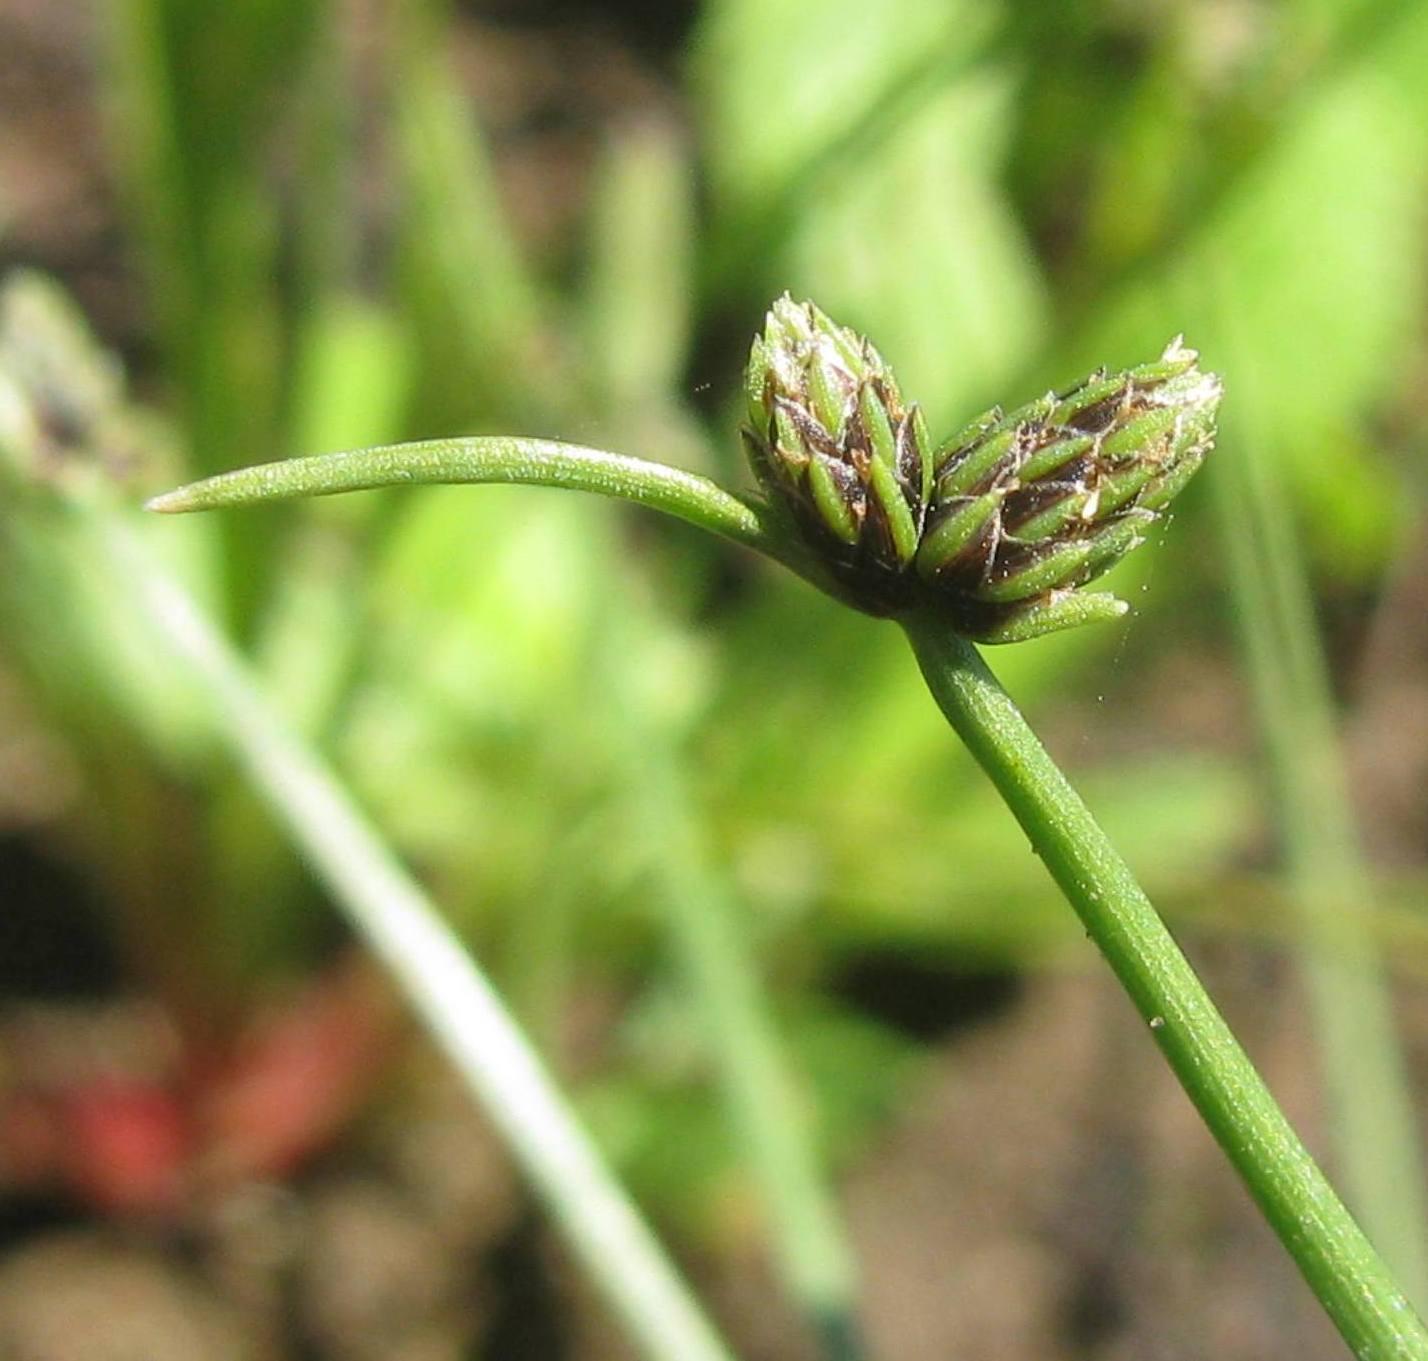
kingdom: Plantae
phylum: Tracheophyta
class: Liliopsida
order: Poales
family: Cyperaceae
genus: Isolepis
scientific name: Isolepis sororia
